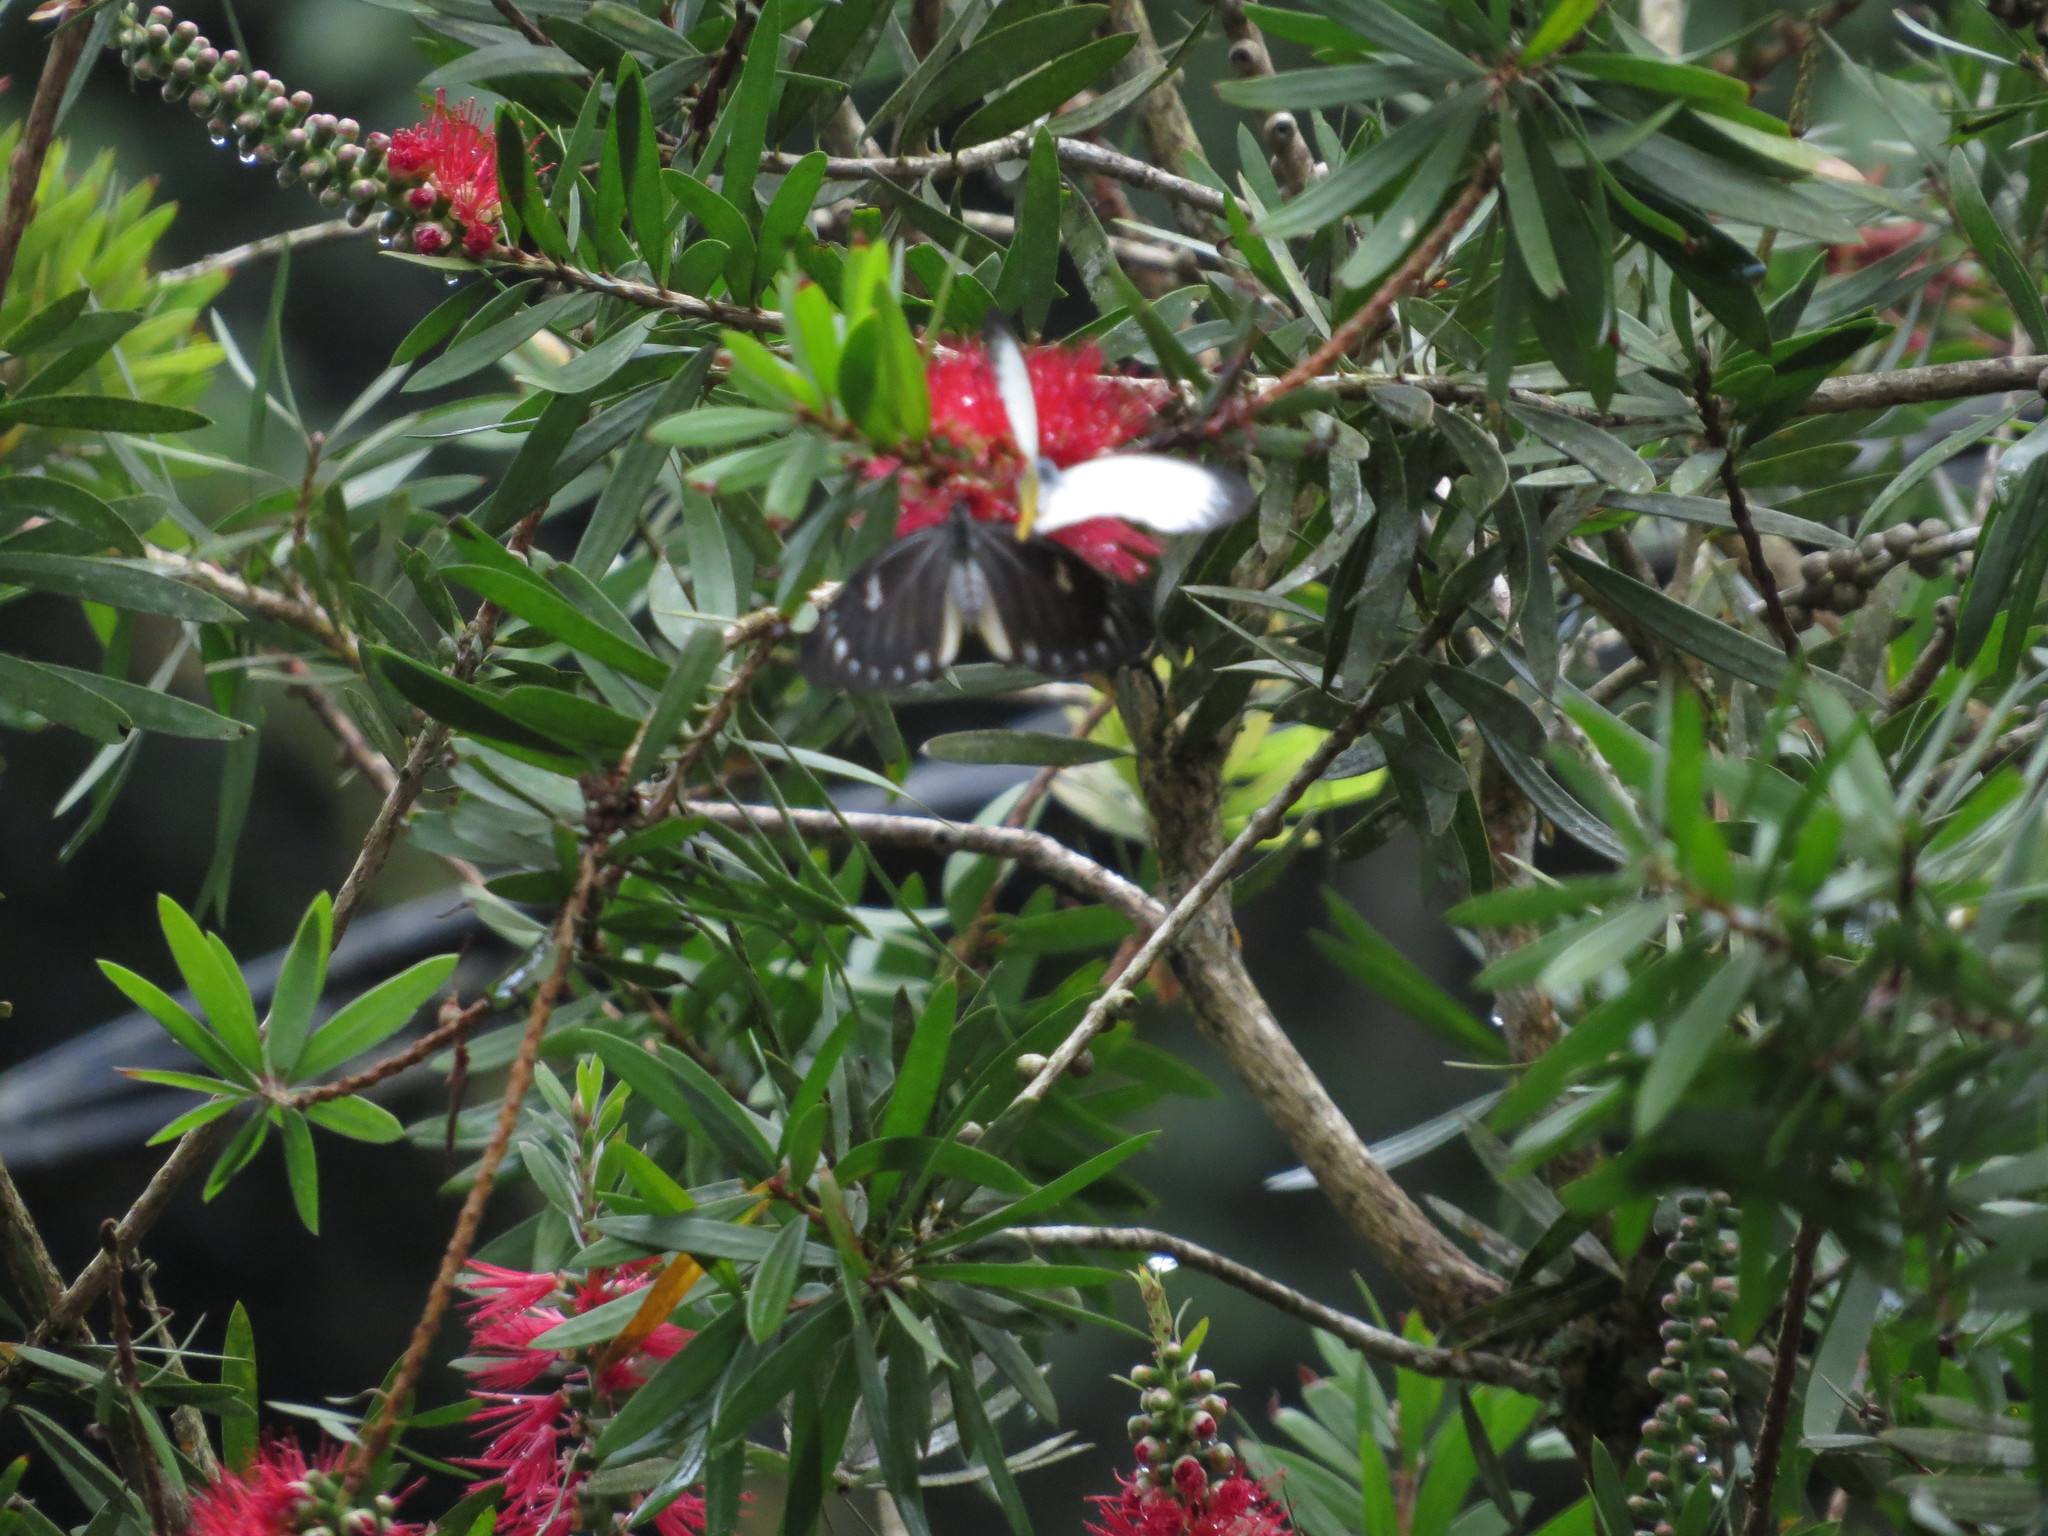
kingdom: Animalia
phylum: Arthropoda
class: Insecta
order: Lepidoptera
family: Pieridae
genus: Delias
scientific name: Delias descombesi
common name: Red-spot jezebel
